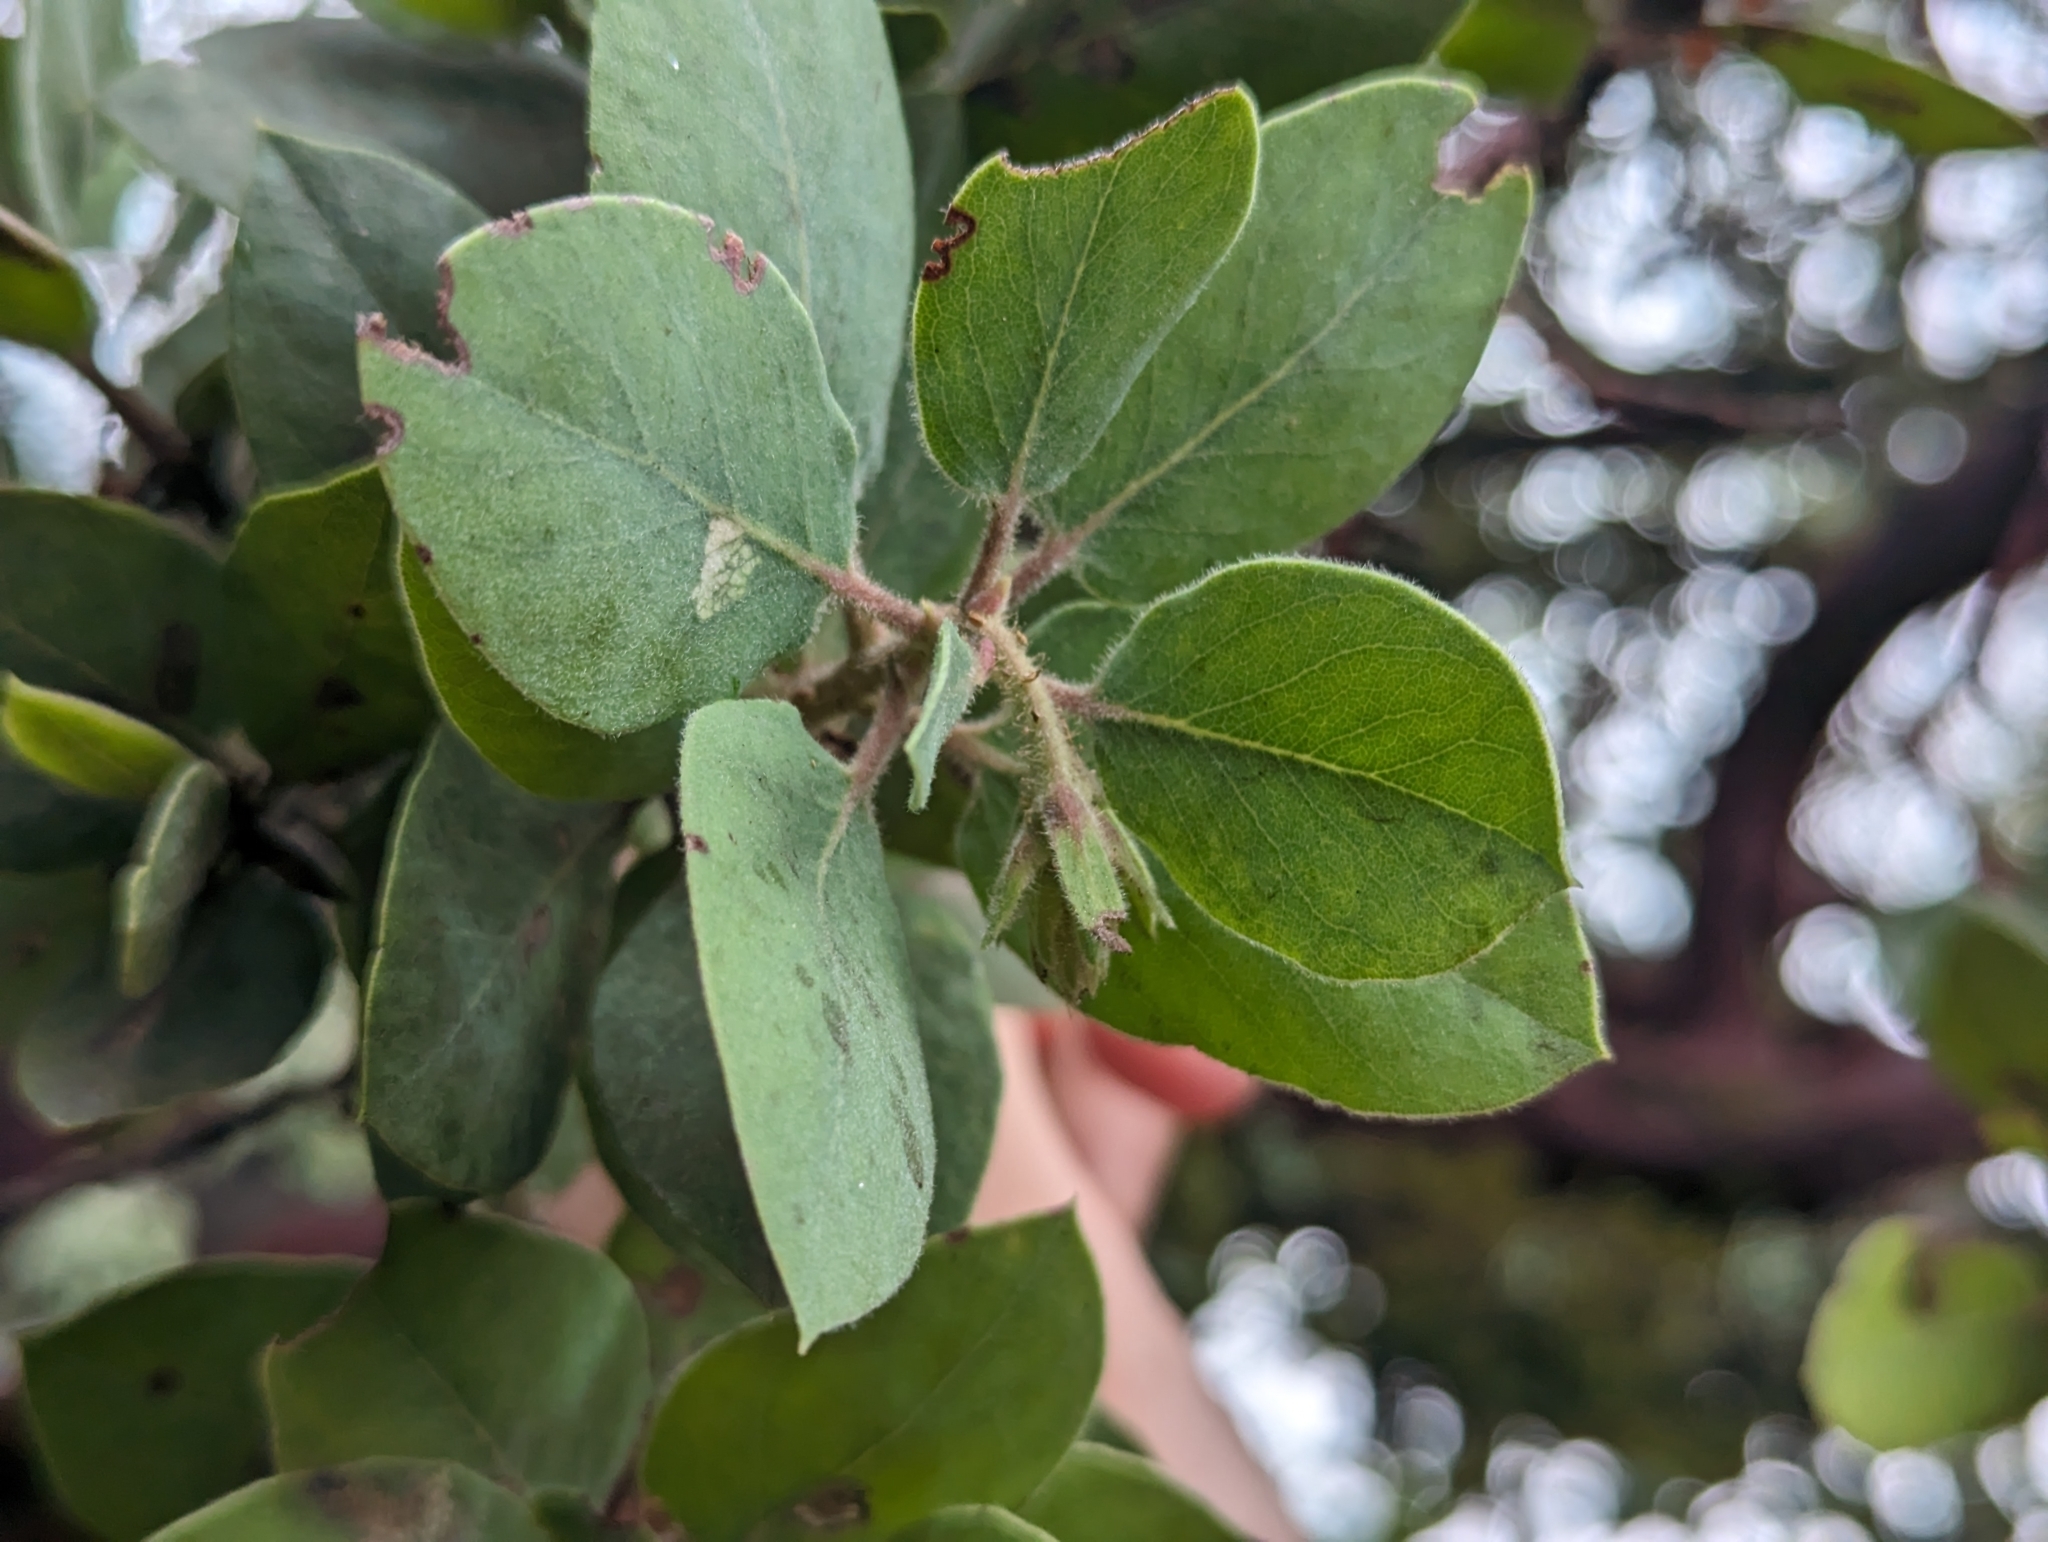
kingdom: Plantae
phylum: Tracheophyta
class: Magnoliopsida
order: Ericales
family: Ericaceae
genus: Arctostaphylos
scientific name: Arctostaphylos glandulosa
